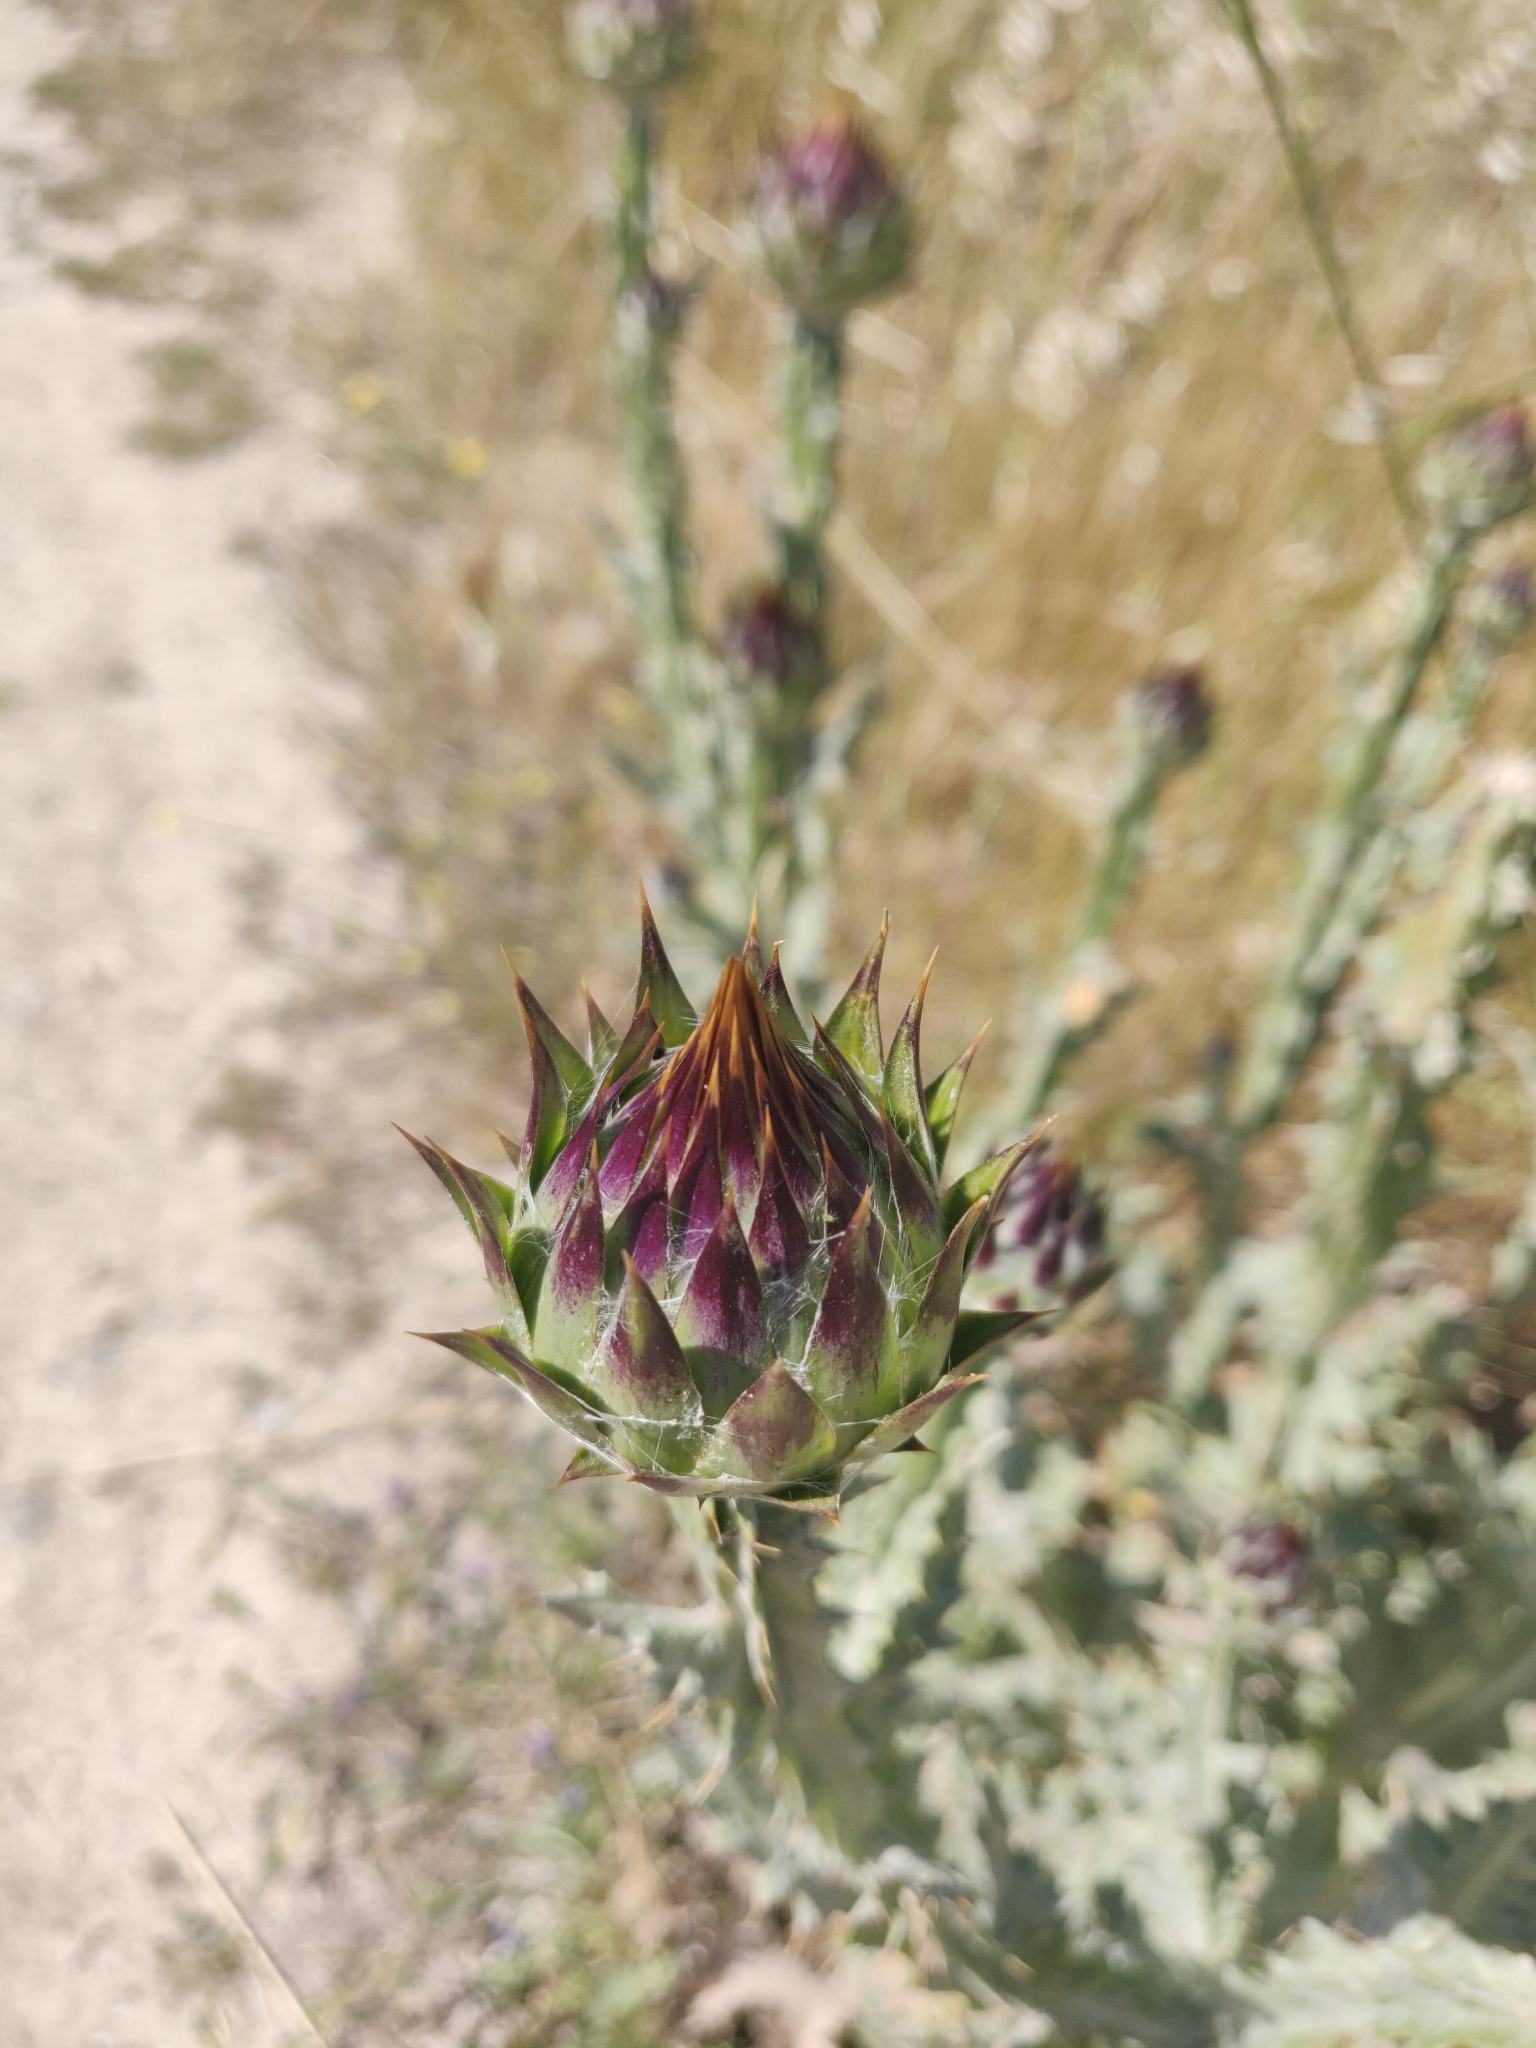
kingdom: Plantae
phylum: Tracheophyta
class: Magnoliopsida
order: Asterales
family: Asteraceae
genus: Onopordum
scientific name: Onopordum illyricum
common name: Illyrian thistle
